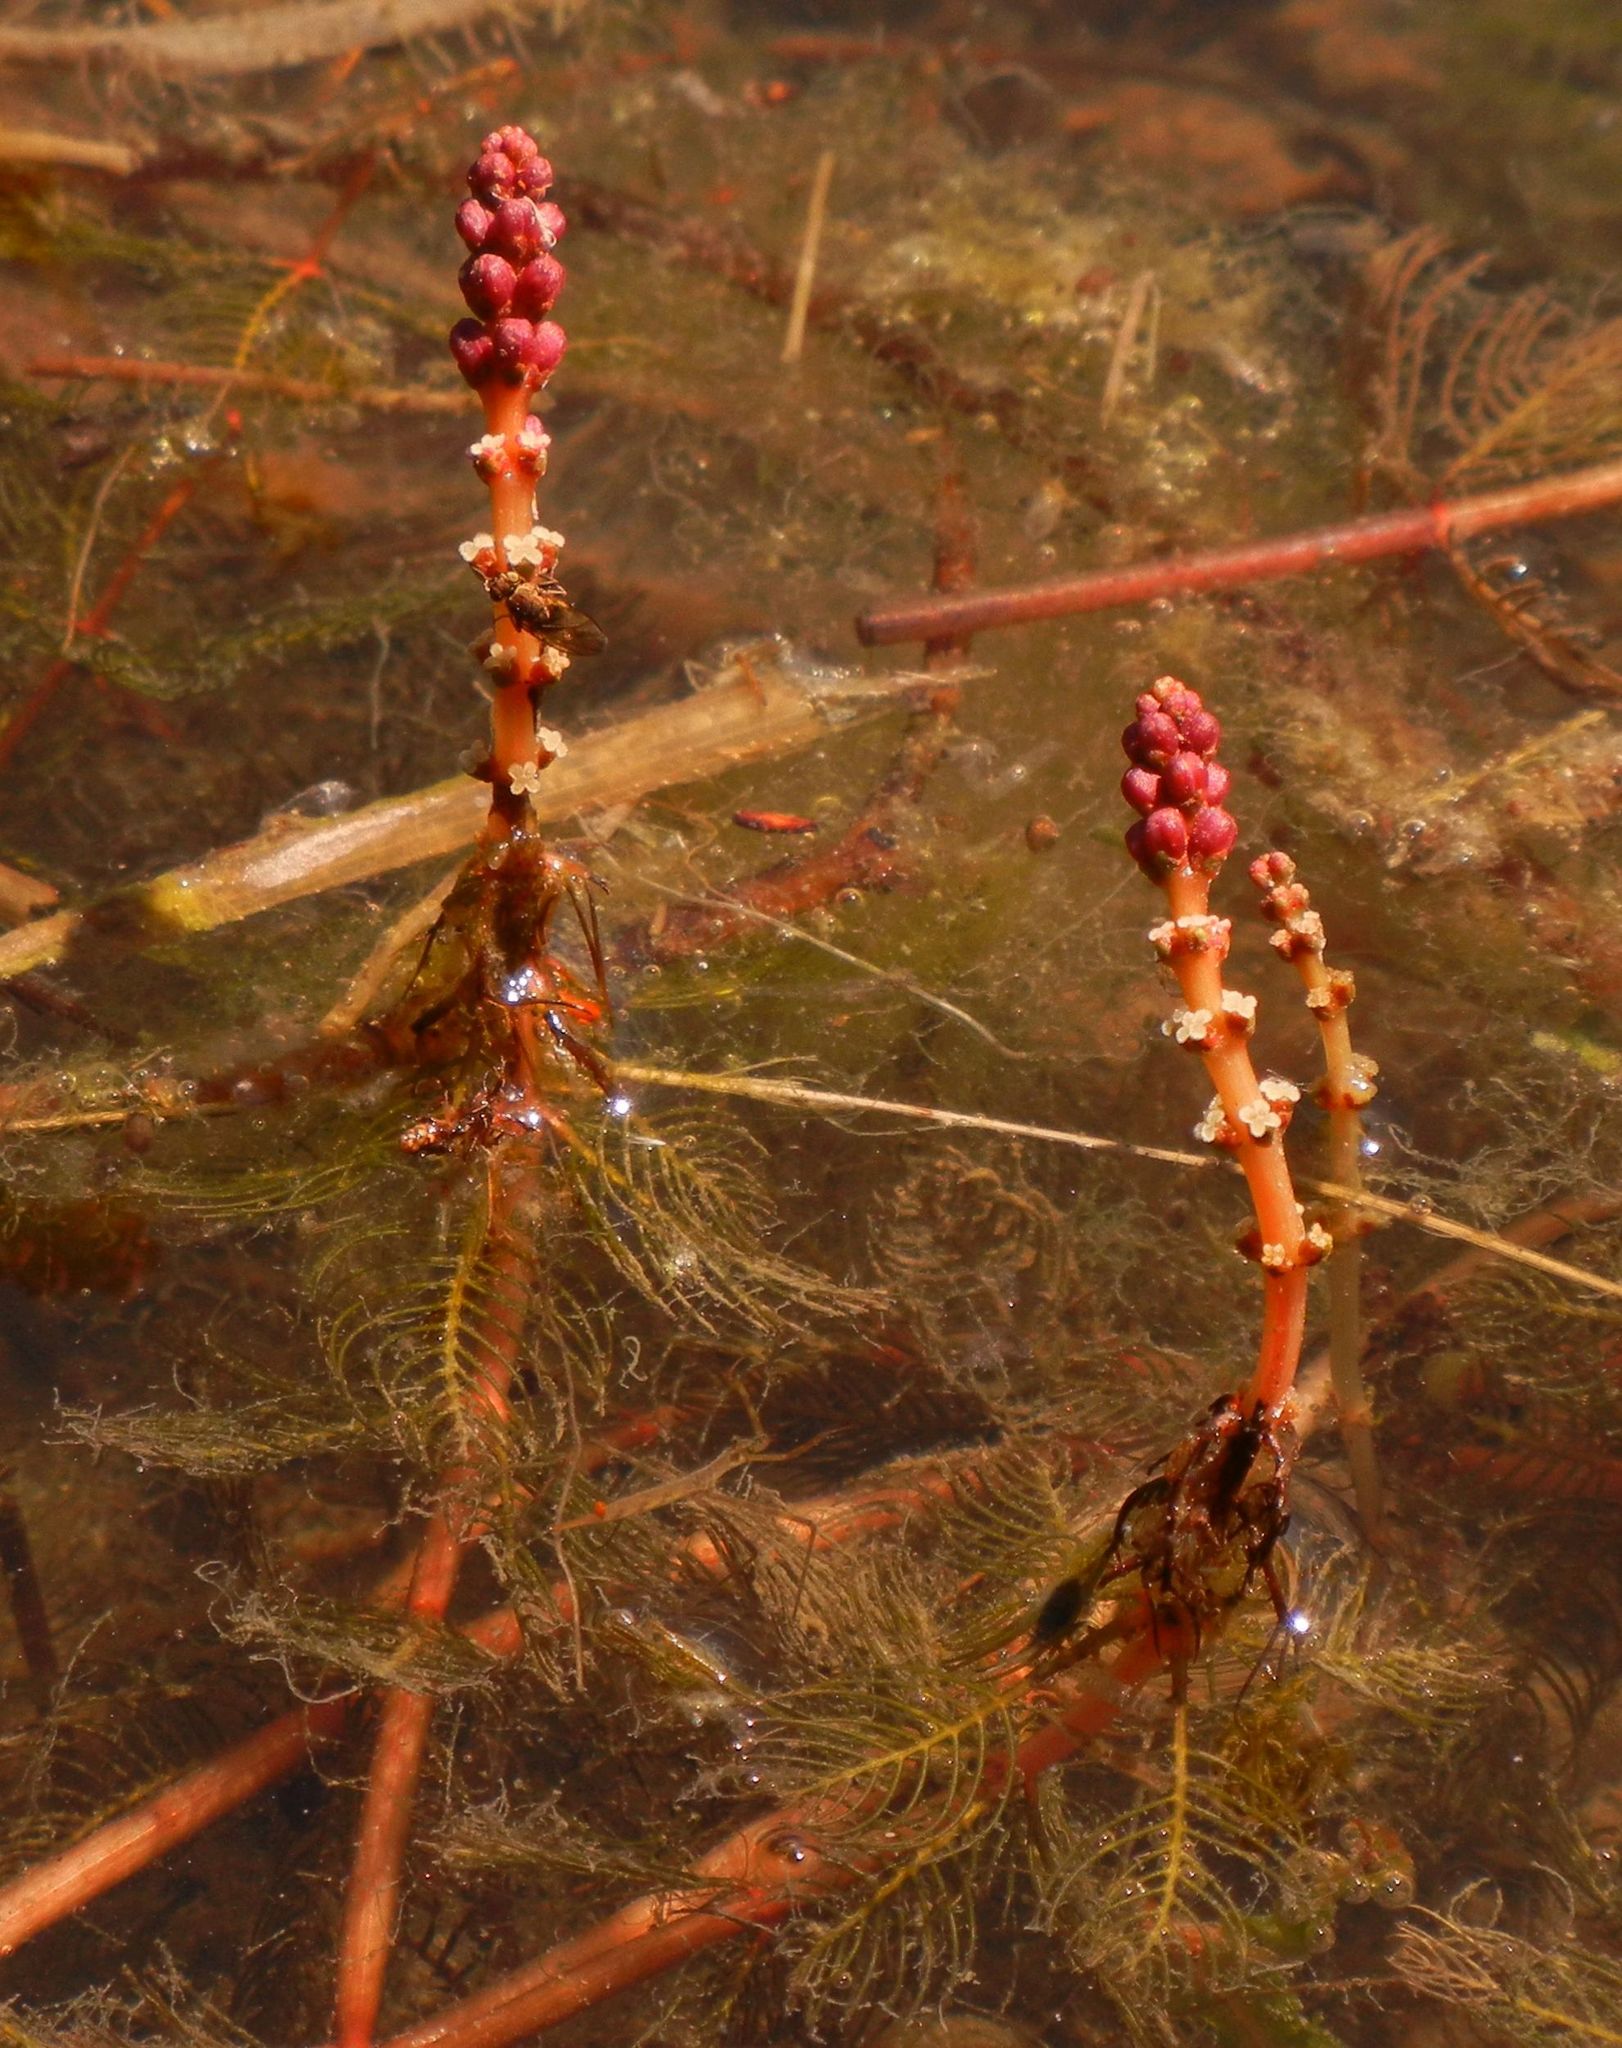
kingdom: Plantae
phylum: Tracheophyta
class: Magnoliopsida
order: Saxifragales
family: Haloragaceae
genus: Myriophyllum
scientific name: Myriophyllum spicatum
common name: Spiked water-milfoil
